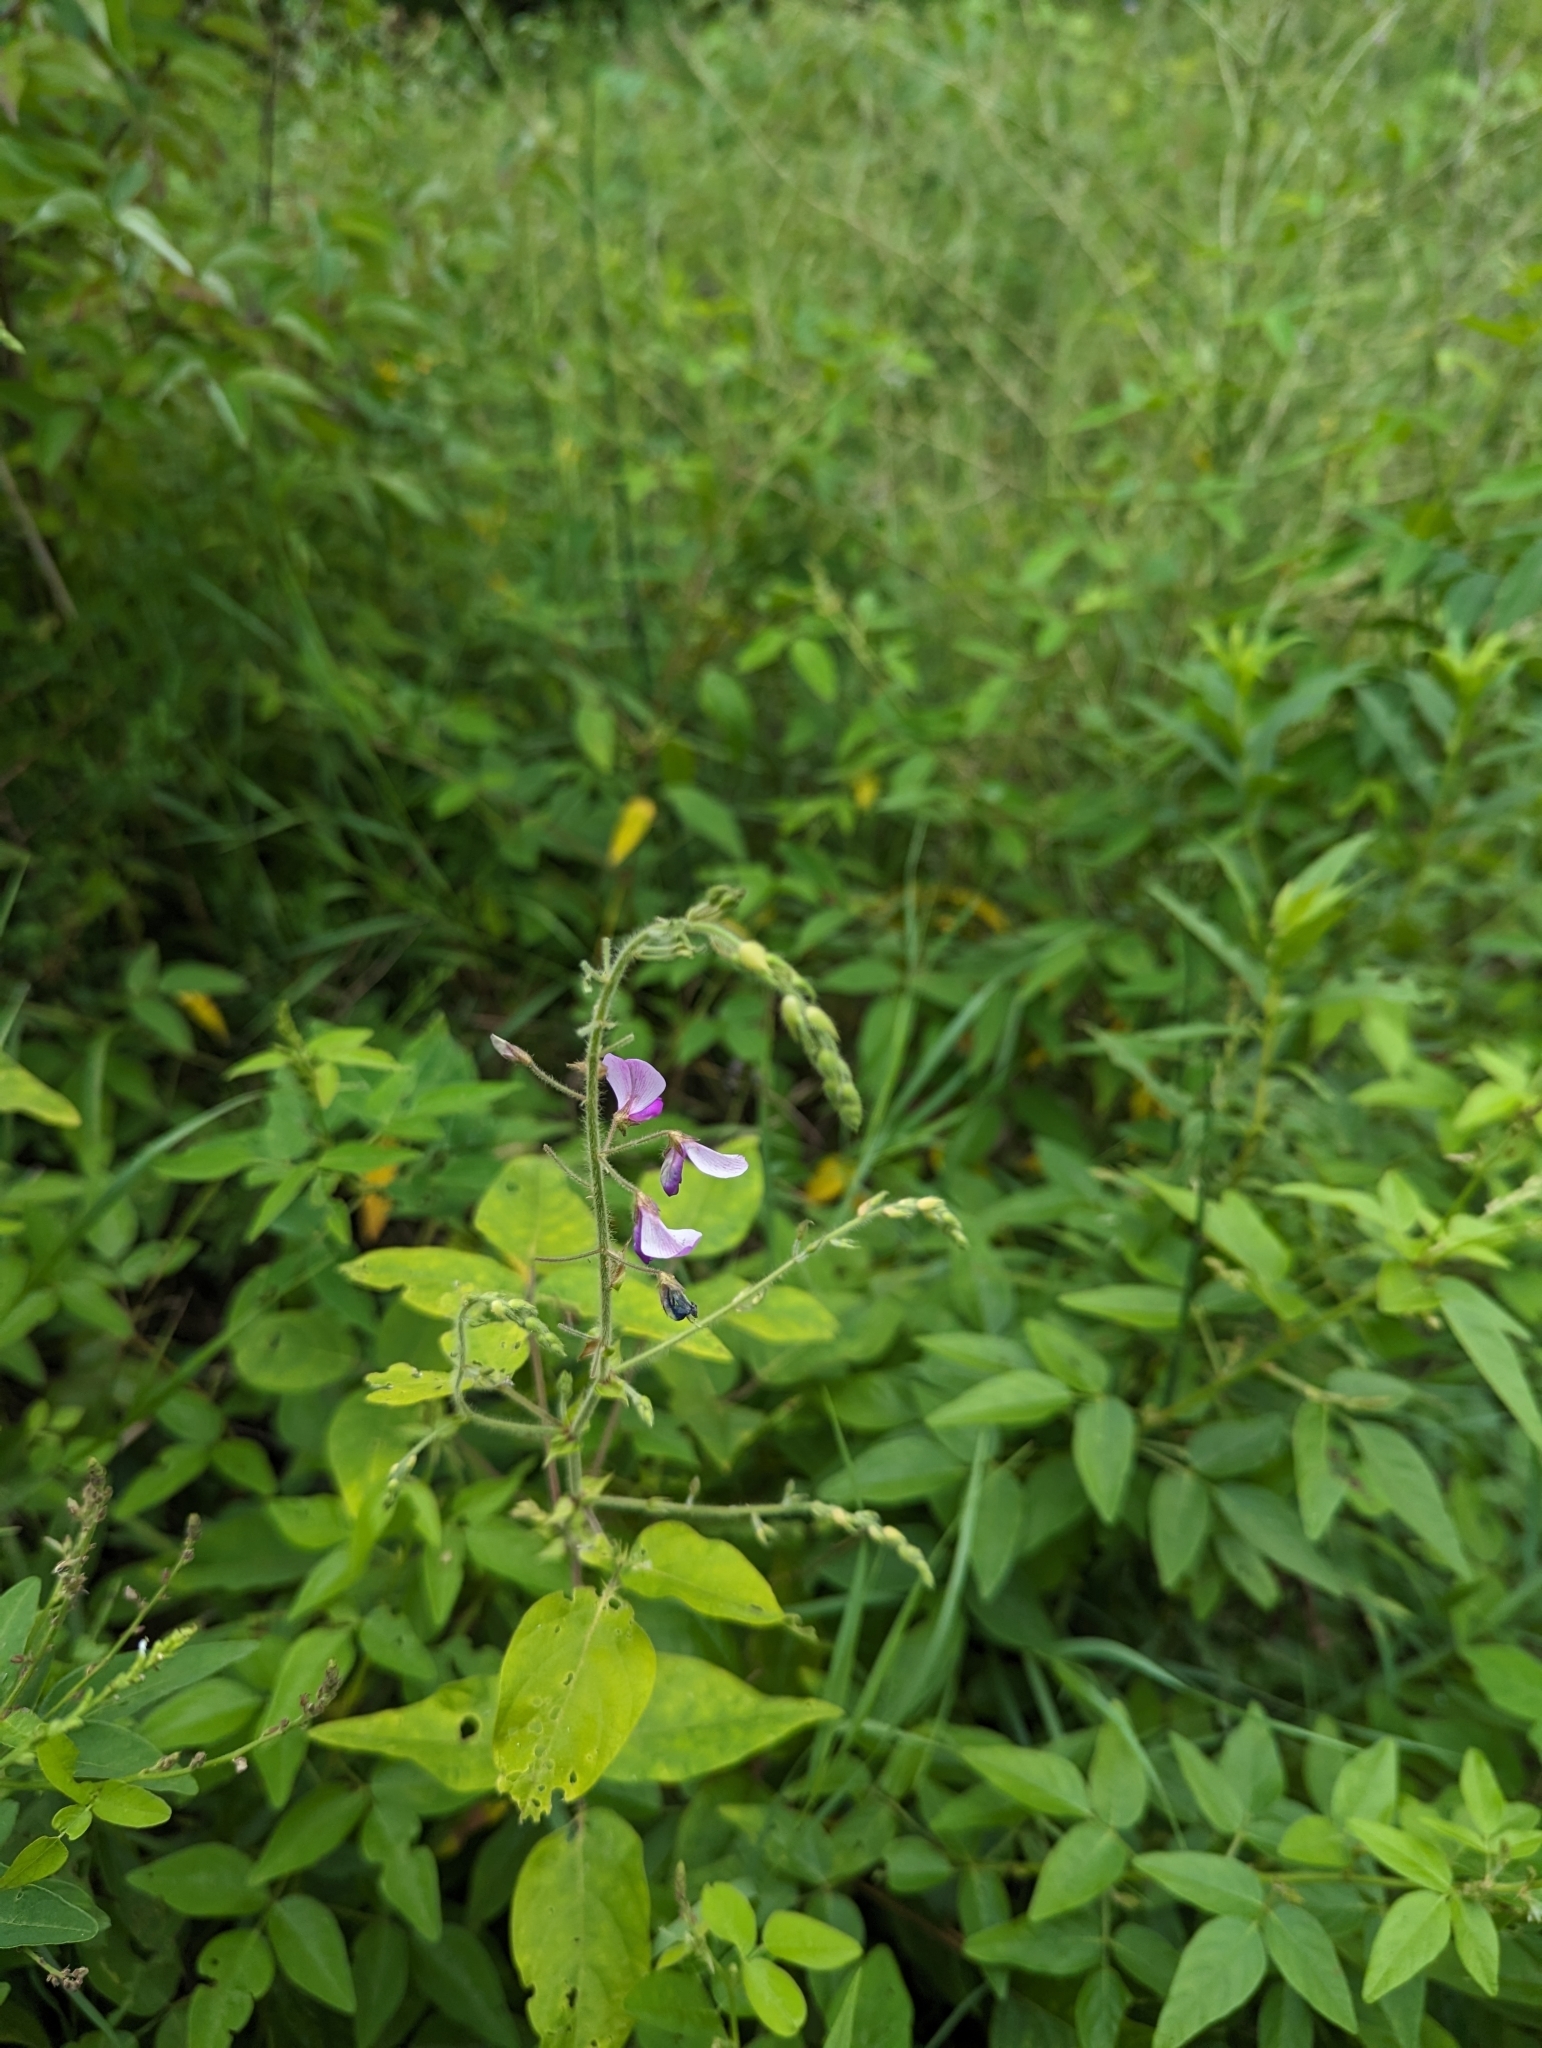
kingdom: Plantae
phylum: Tracheophyta
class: Magnoliopsida
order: Fabales
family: Fabaceae
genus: Desmodium
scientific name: Desmodium canescens
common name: Hoary tick-clover
